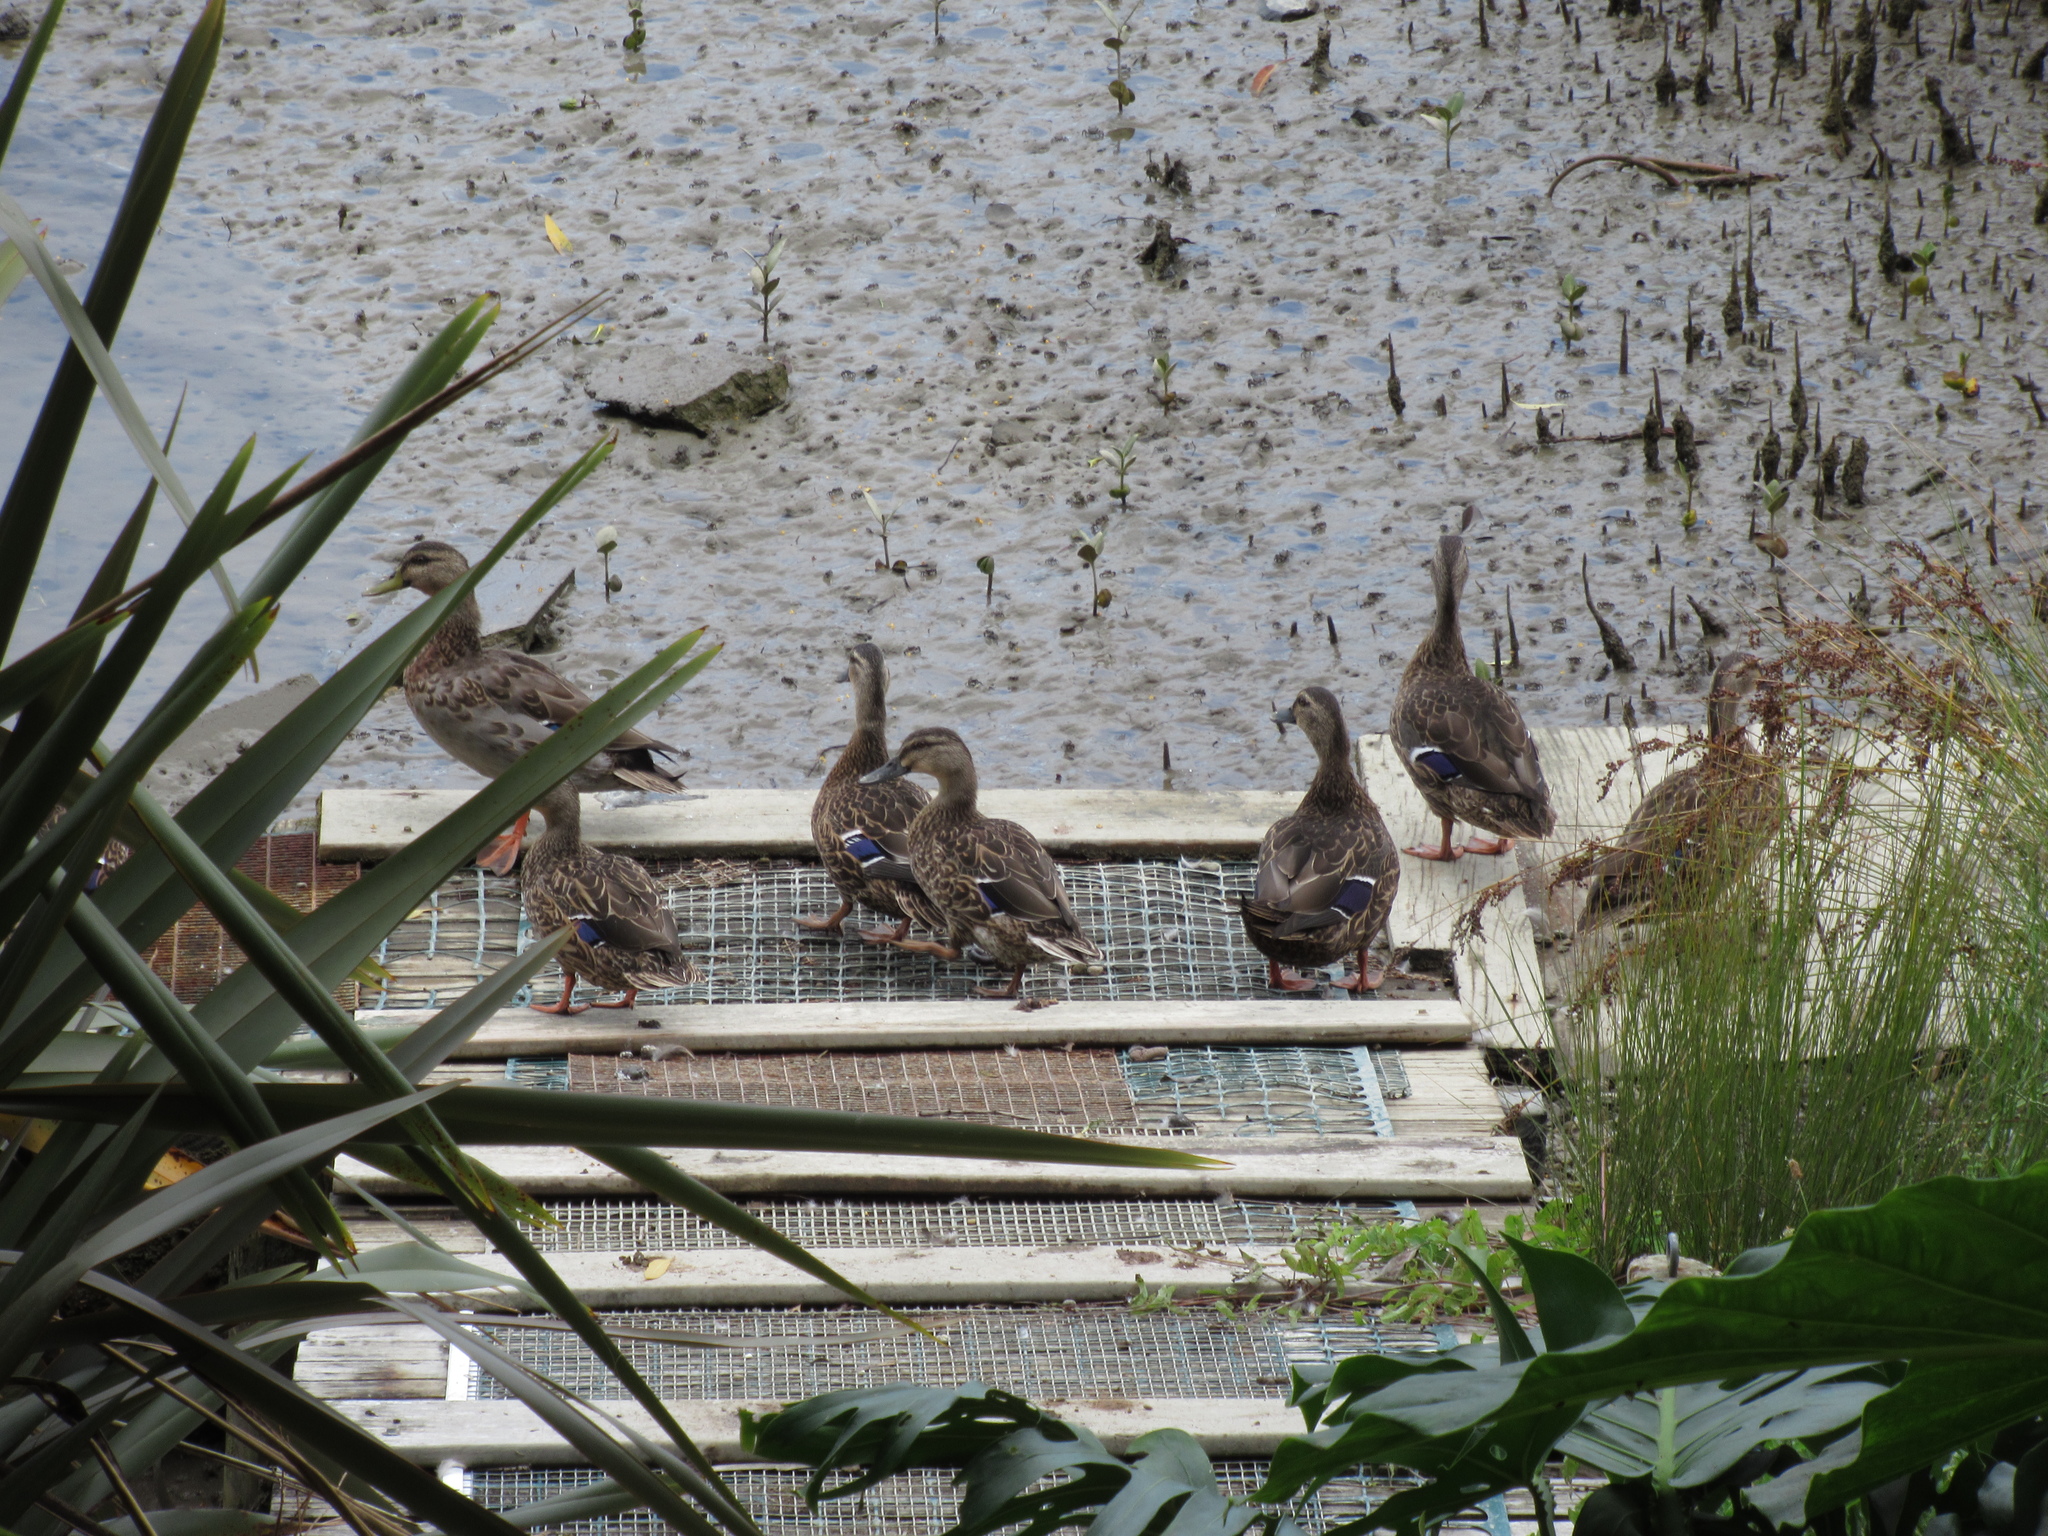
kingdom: Animalia
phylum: Chordata
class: Aves
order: Anseriformes
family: Anatidae
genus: Anas
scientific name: Anas
